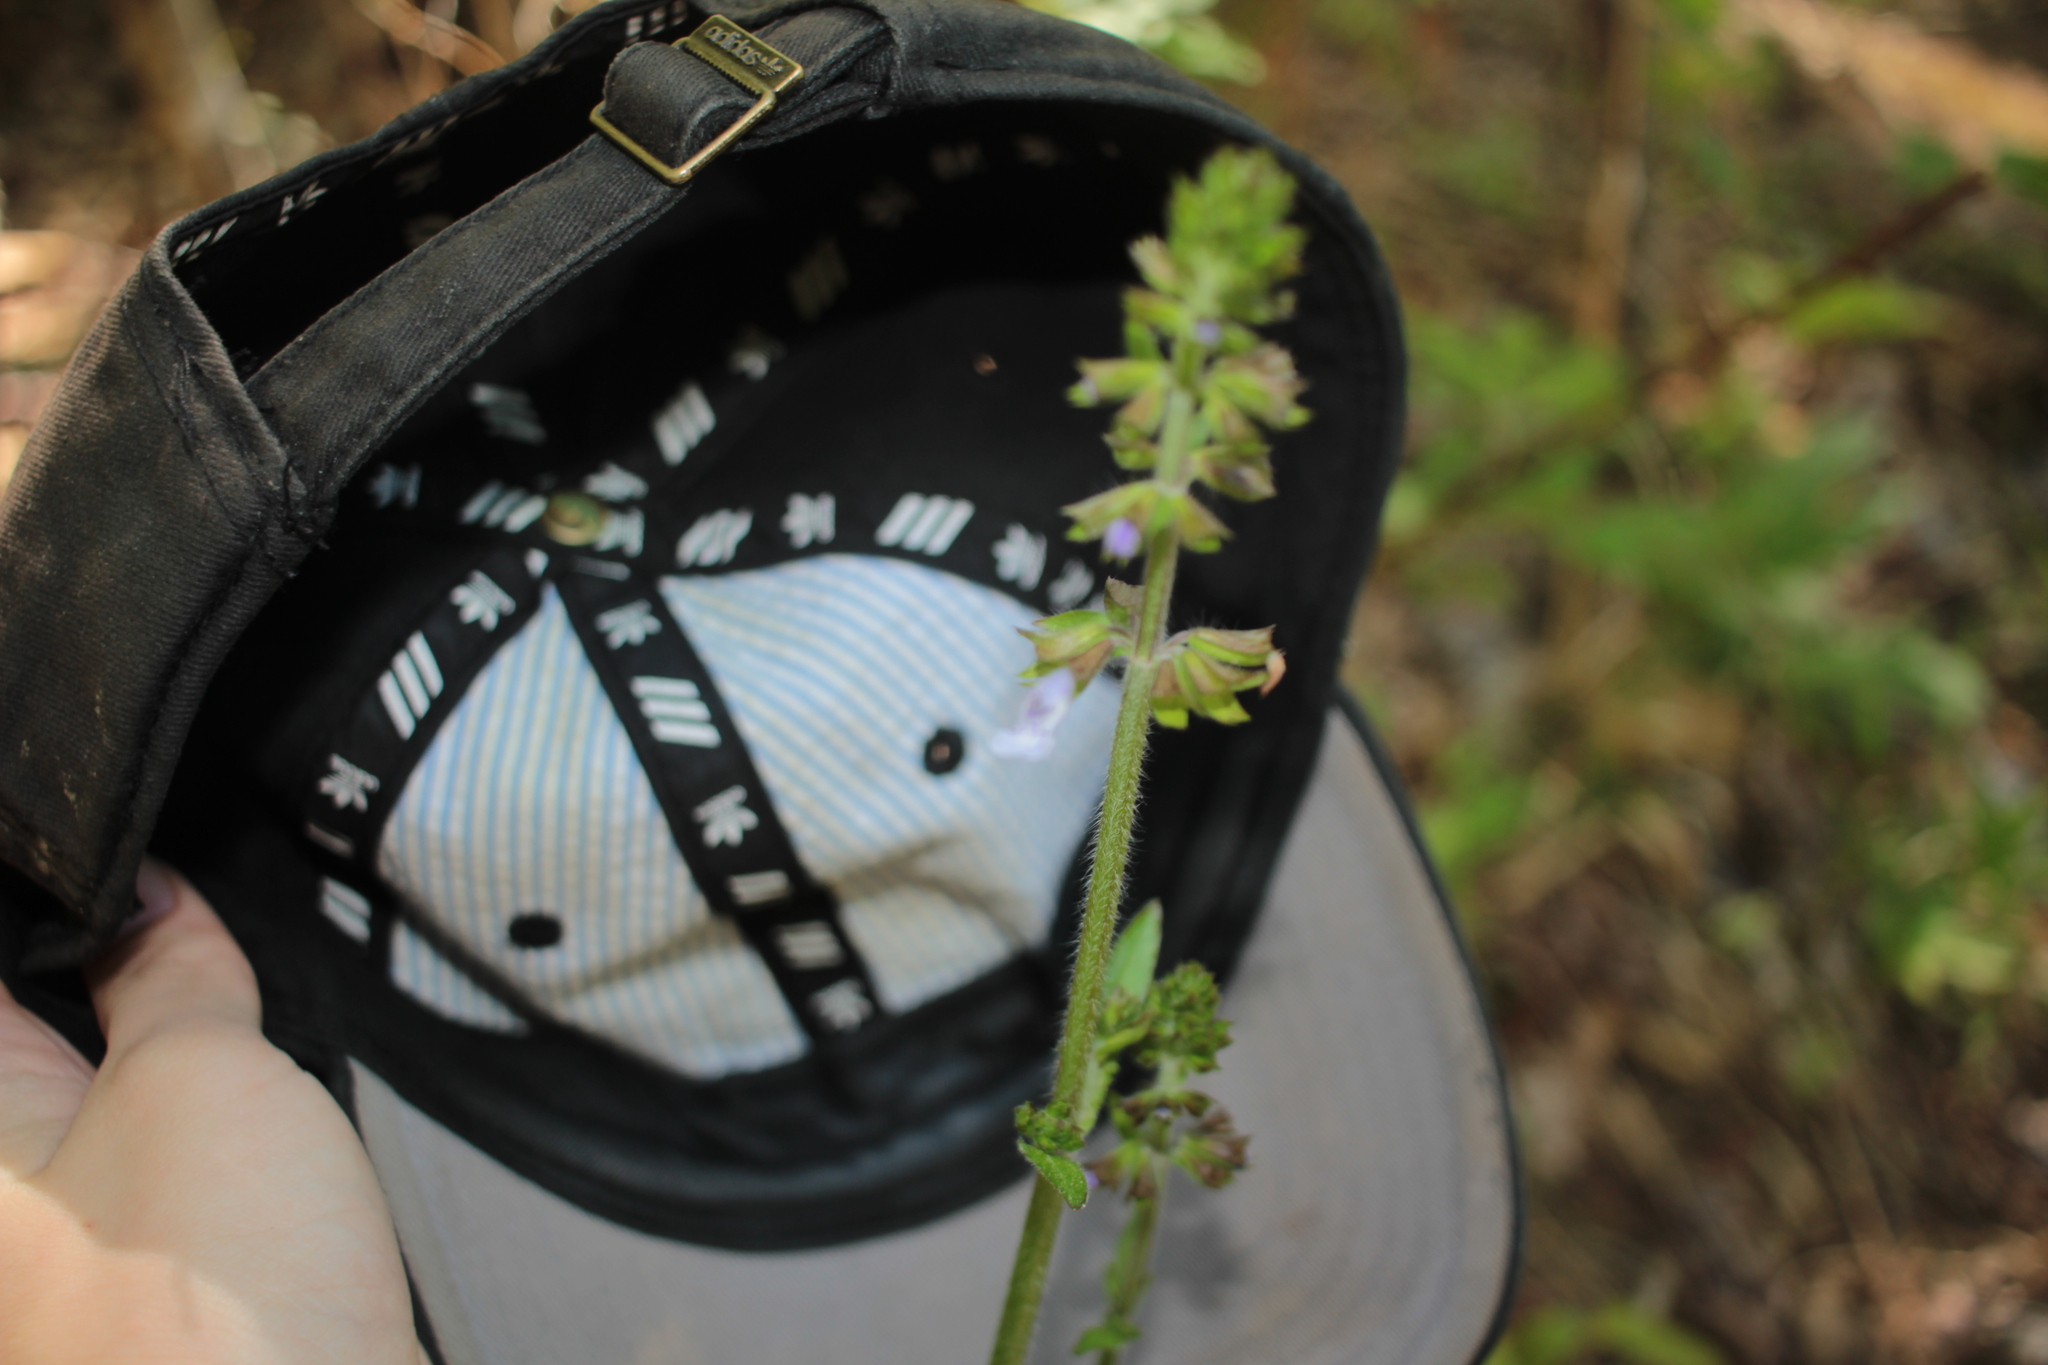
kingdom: Plantae
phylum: Tracheophyta
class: Magnoliopsida
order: Lamiales
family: Lamiaceae
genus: Salvia
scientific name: Salvia lyrata
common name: Cancerweed
